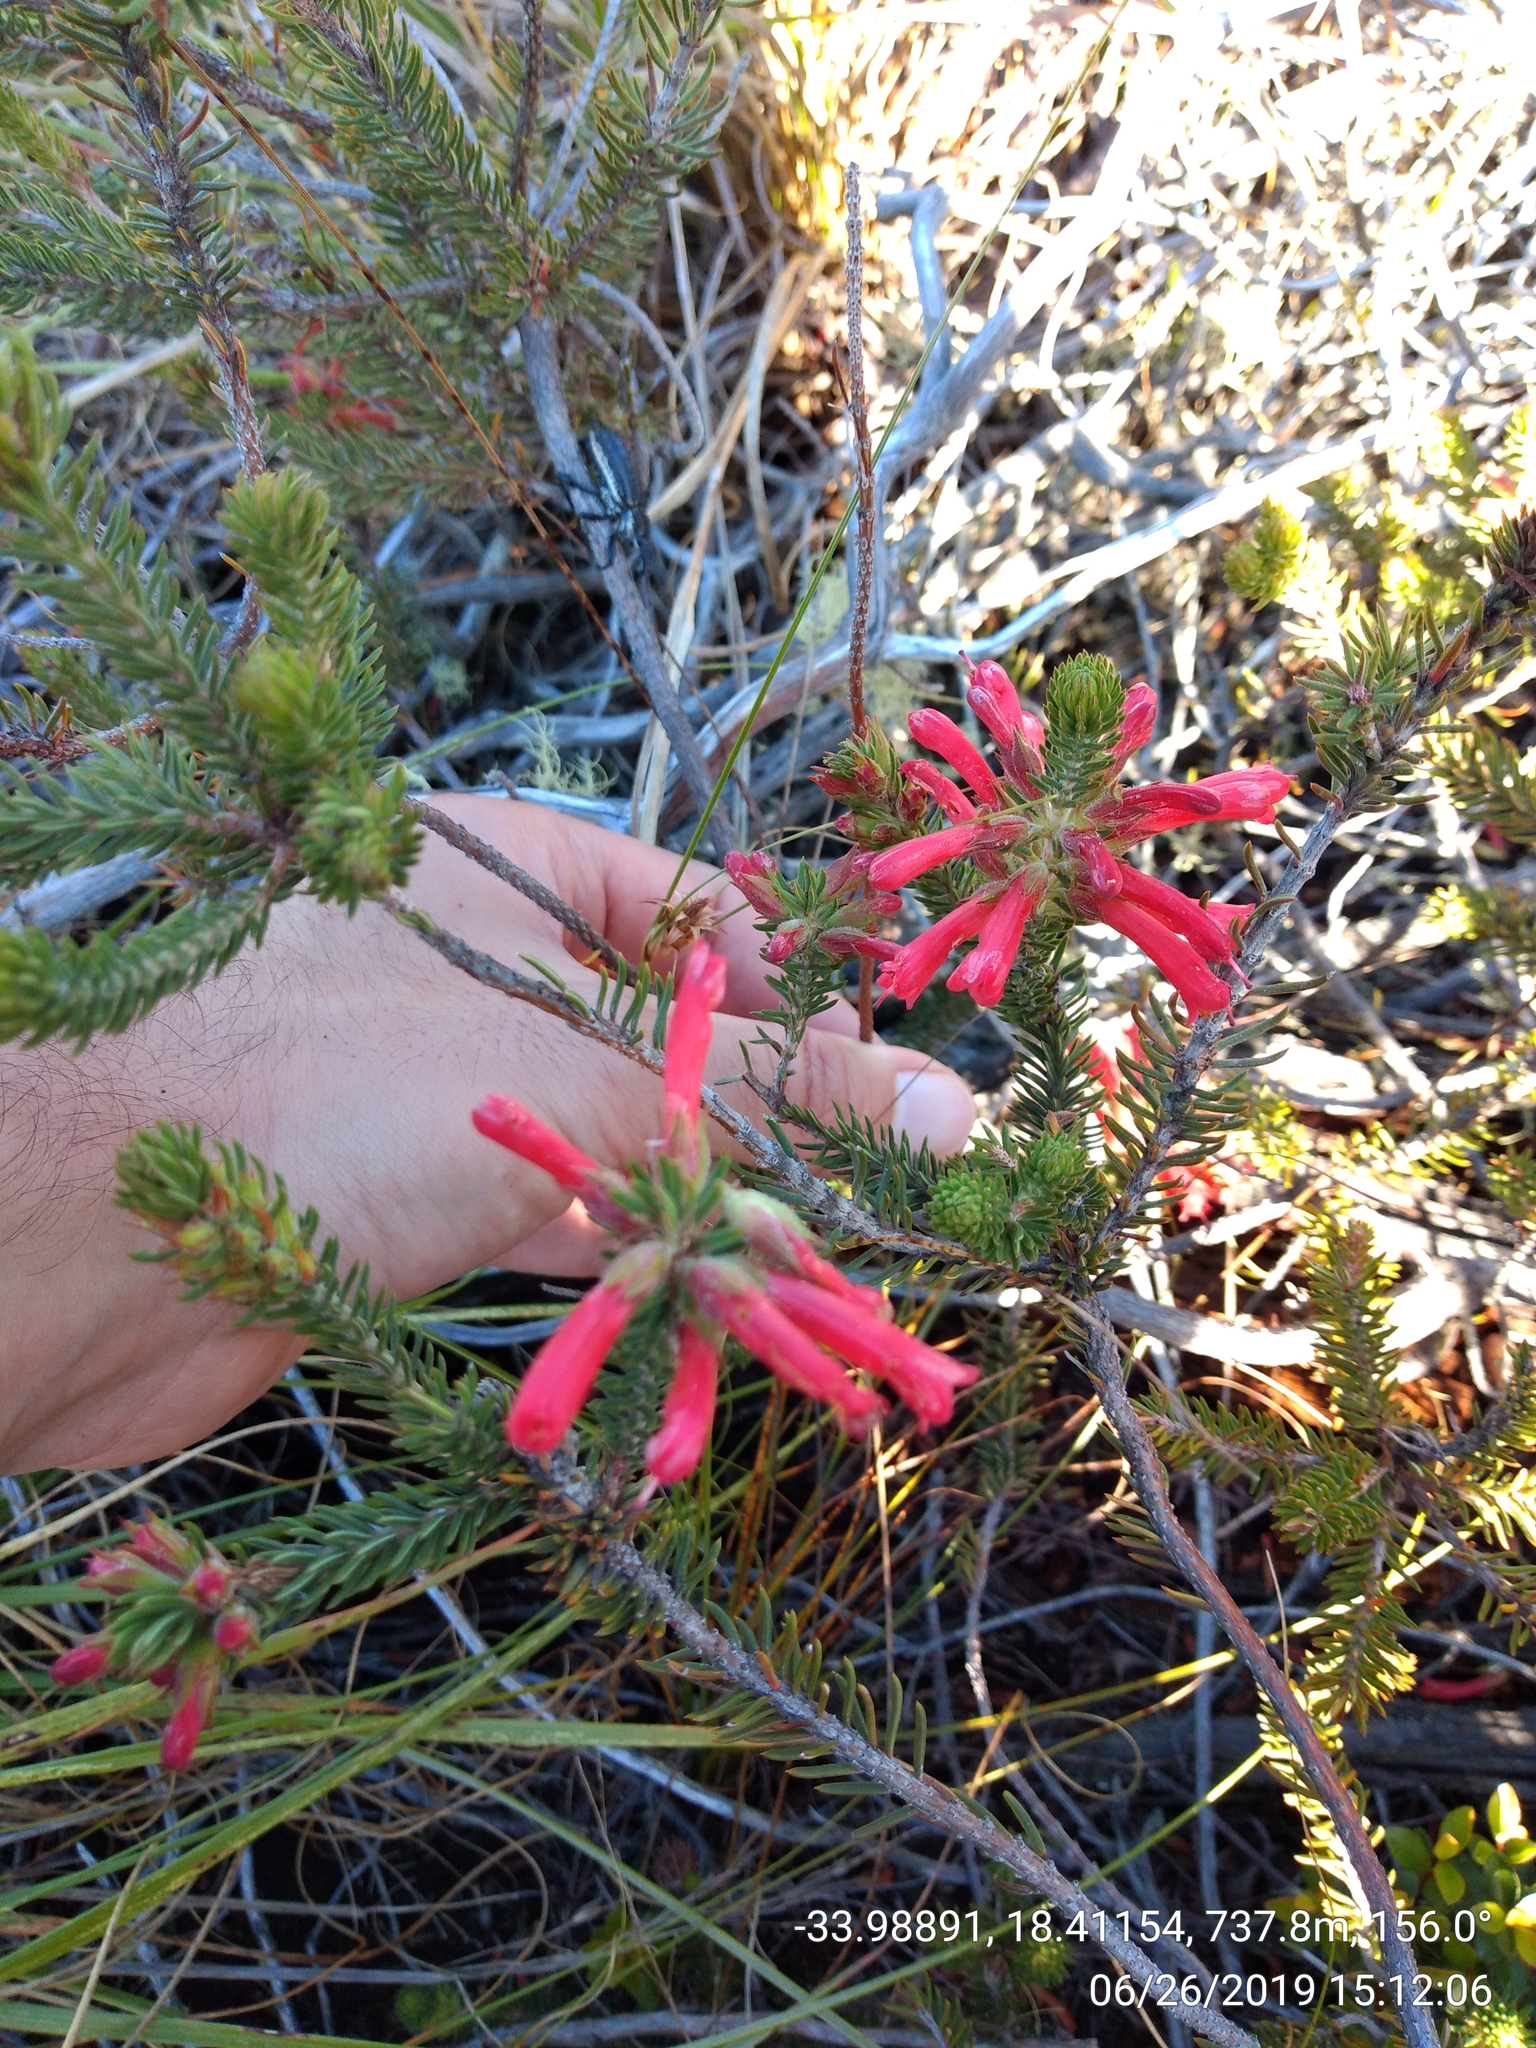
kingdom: Plantae
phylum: Tracheophyta
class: Magnoliopsida
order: Ericales
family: Ericaceae
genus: Erica
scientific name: Erica abietina
